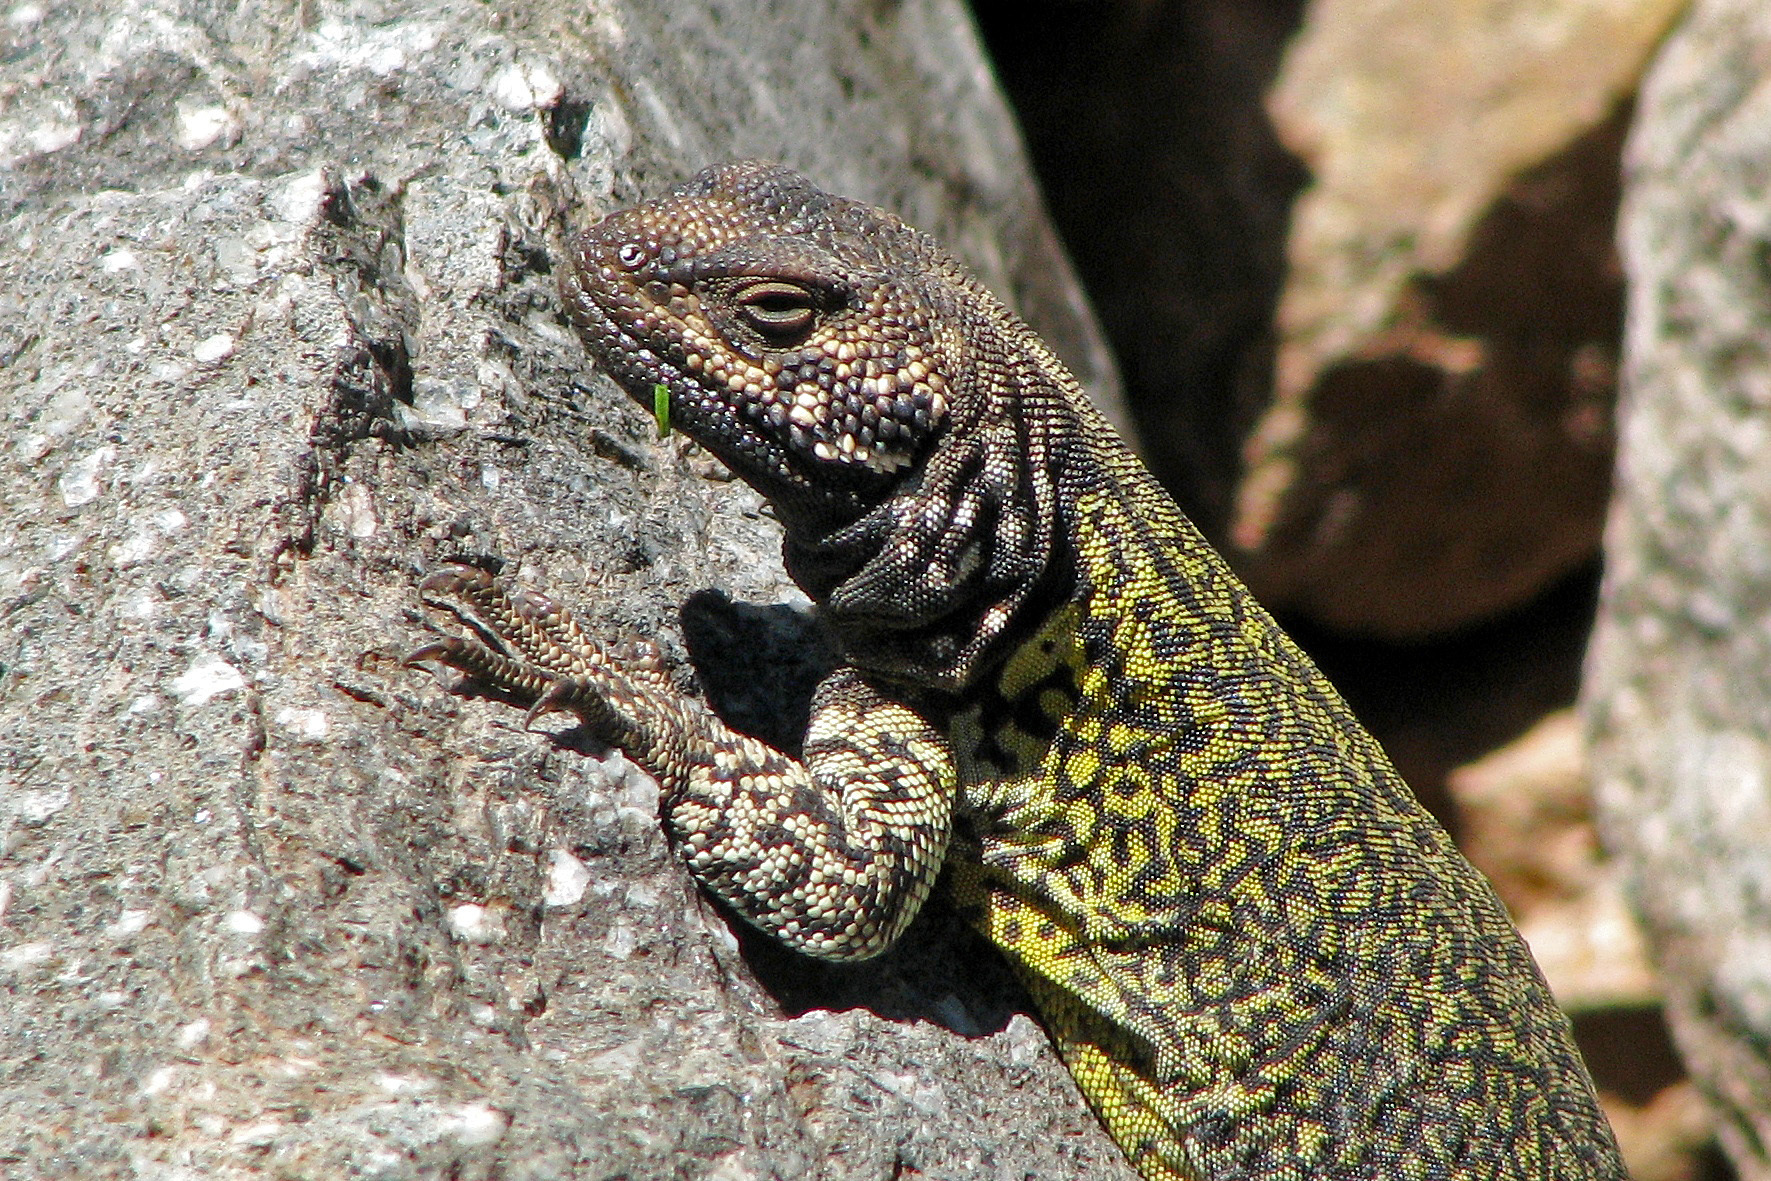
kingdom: Animalia
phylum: Chordata
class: Squamata
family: Liolaemidae
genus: Phymaturus
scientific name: Phymaturus palluma
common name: High mountain lizard
